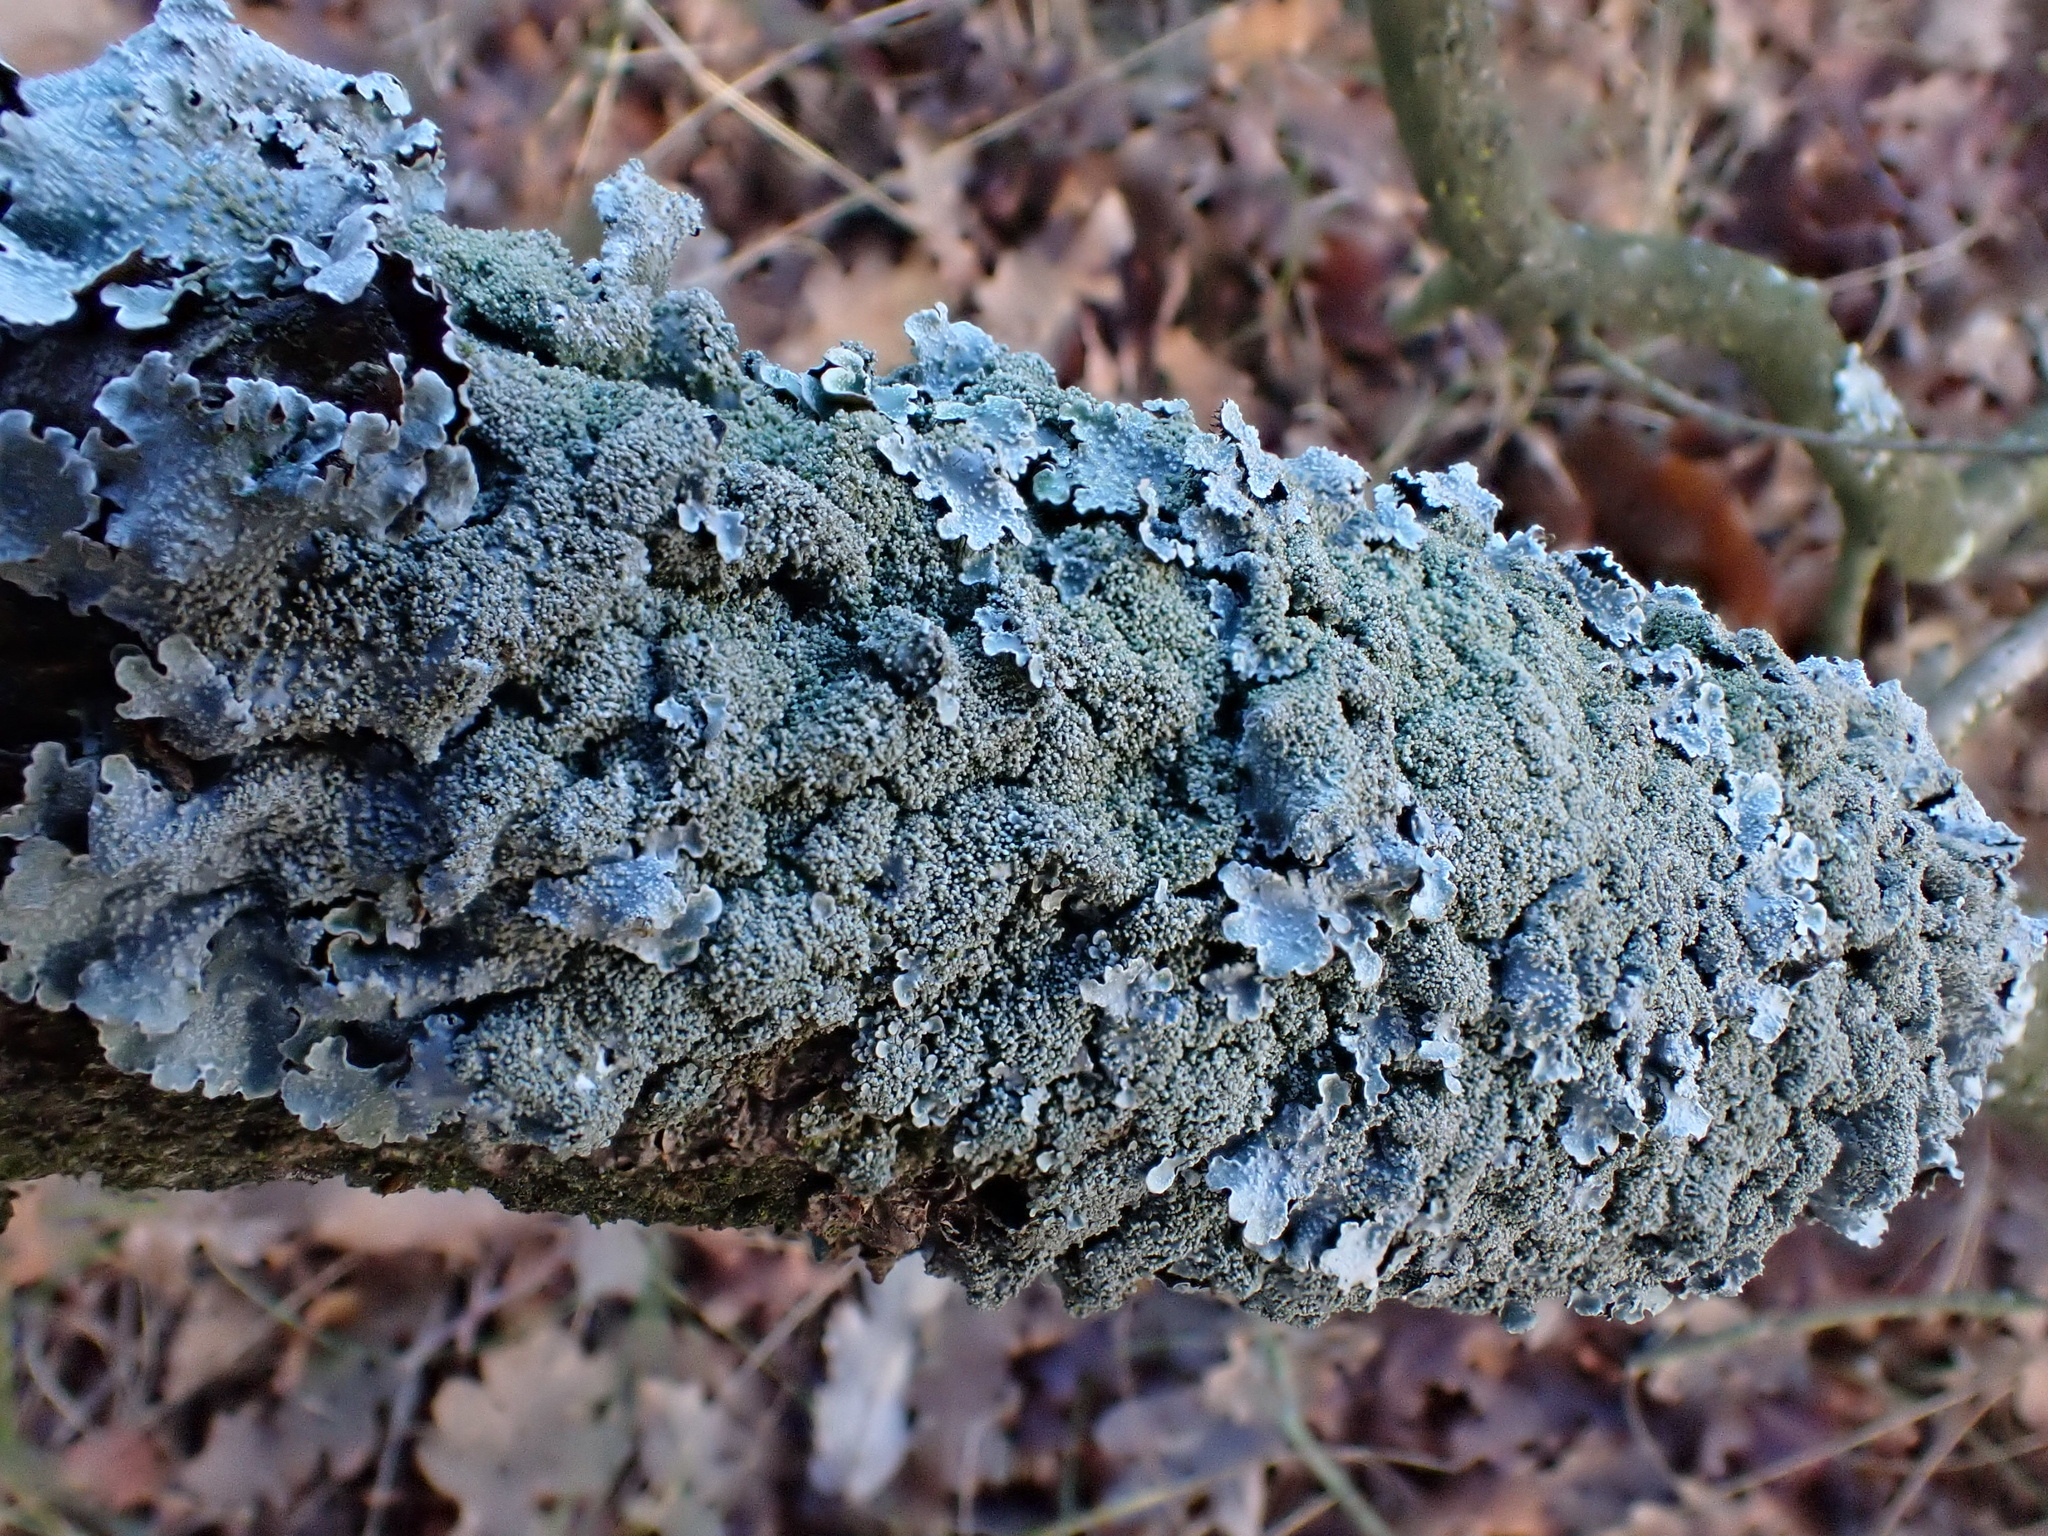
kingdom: Fungi
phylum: Ascomycota
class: Lecanoromycetes
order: Lecanorales
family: Parmeliaceae
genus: Parmelia
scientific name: Parmelia saxatilis
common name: Salted shield lichen
